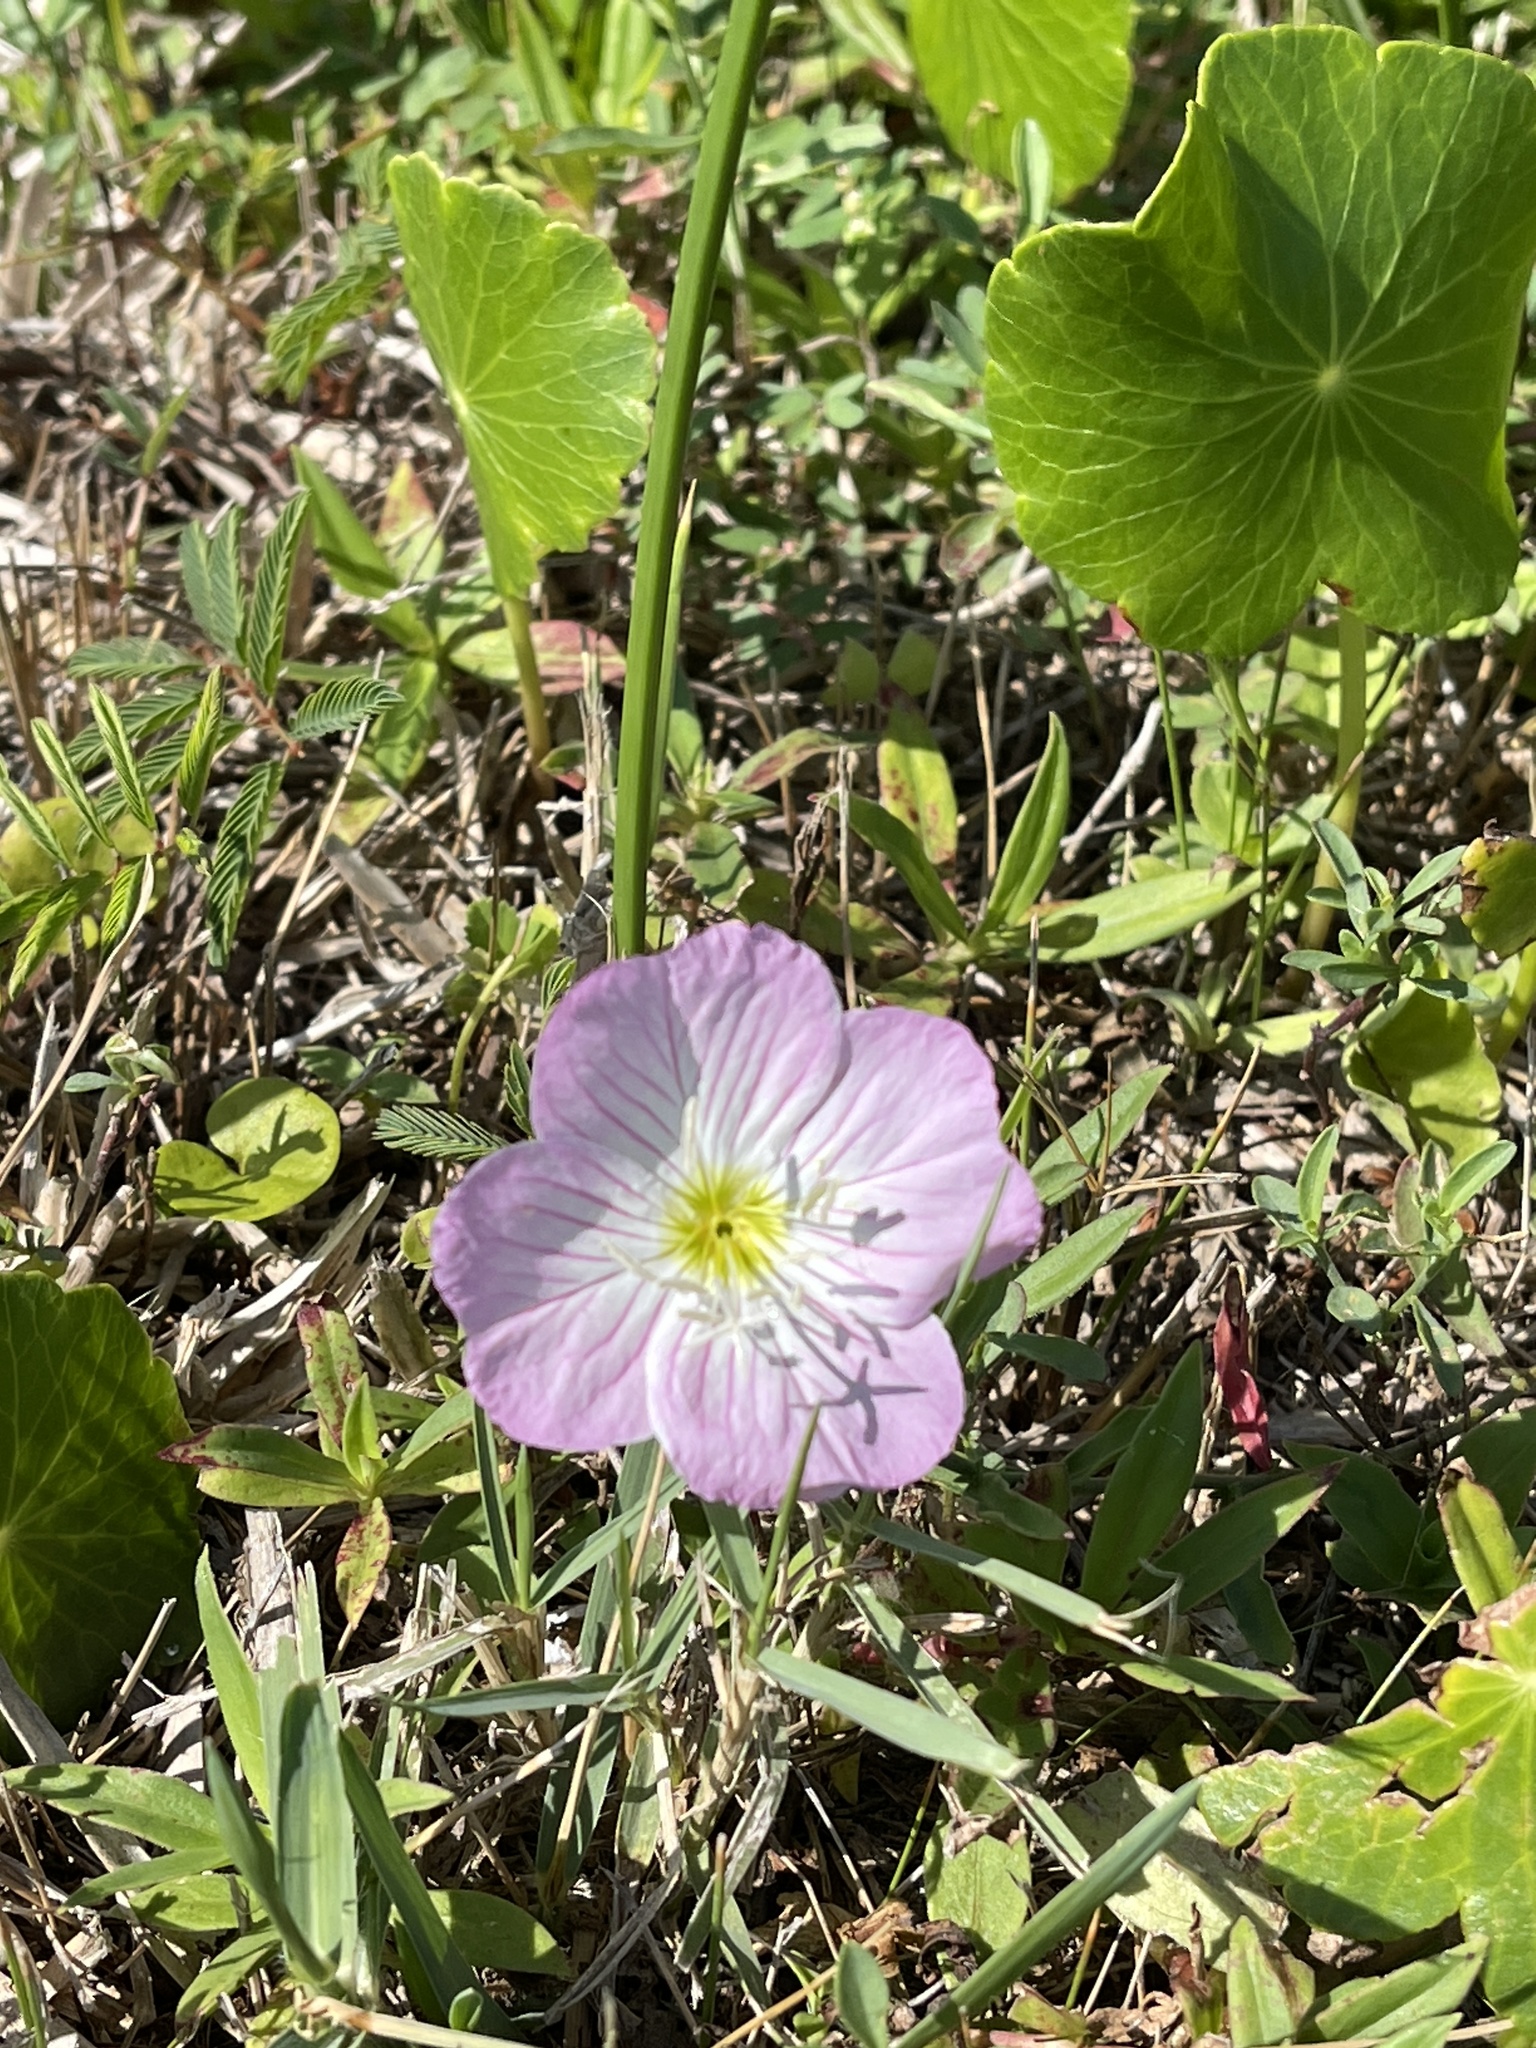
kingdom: Plantae
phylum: Tracheophyta
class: Magnoliopsida
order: Myrtales
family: Onagraceae
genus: Oenothera
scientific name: Oenothera speciosa
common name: White evening-primrose
